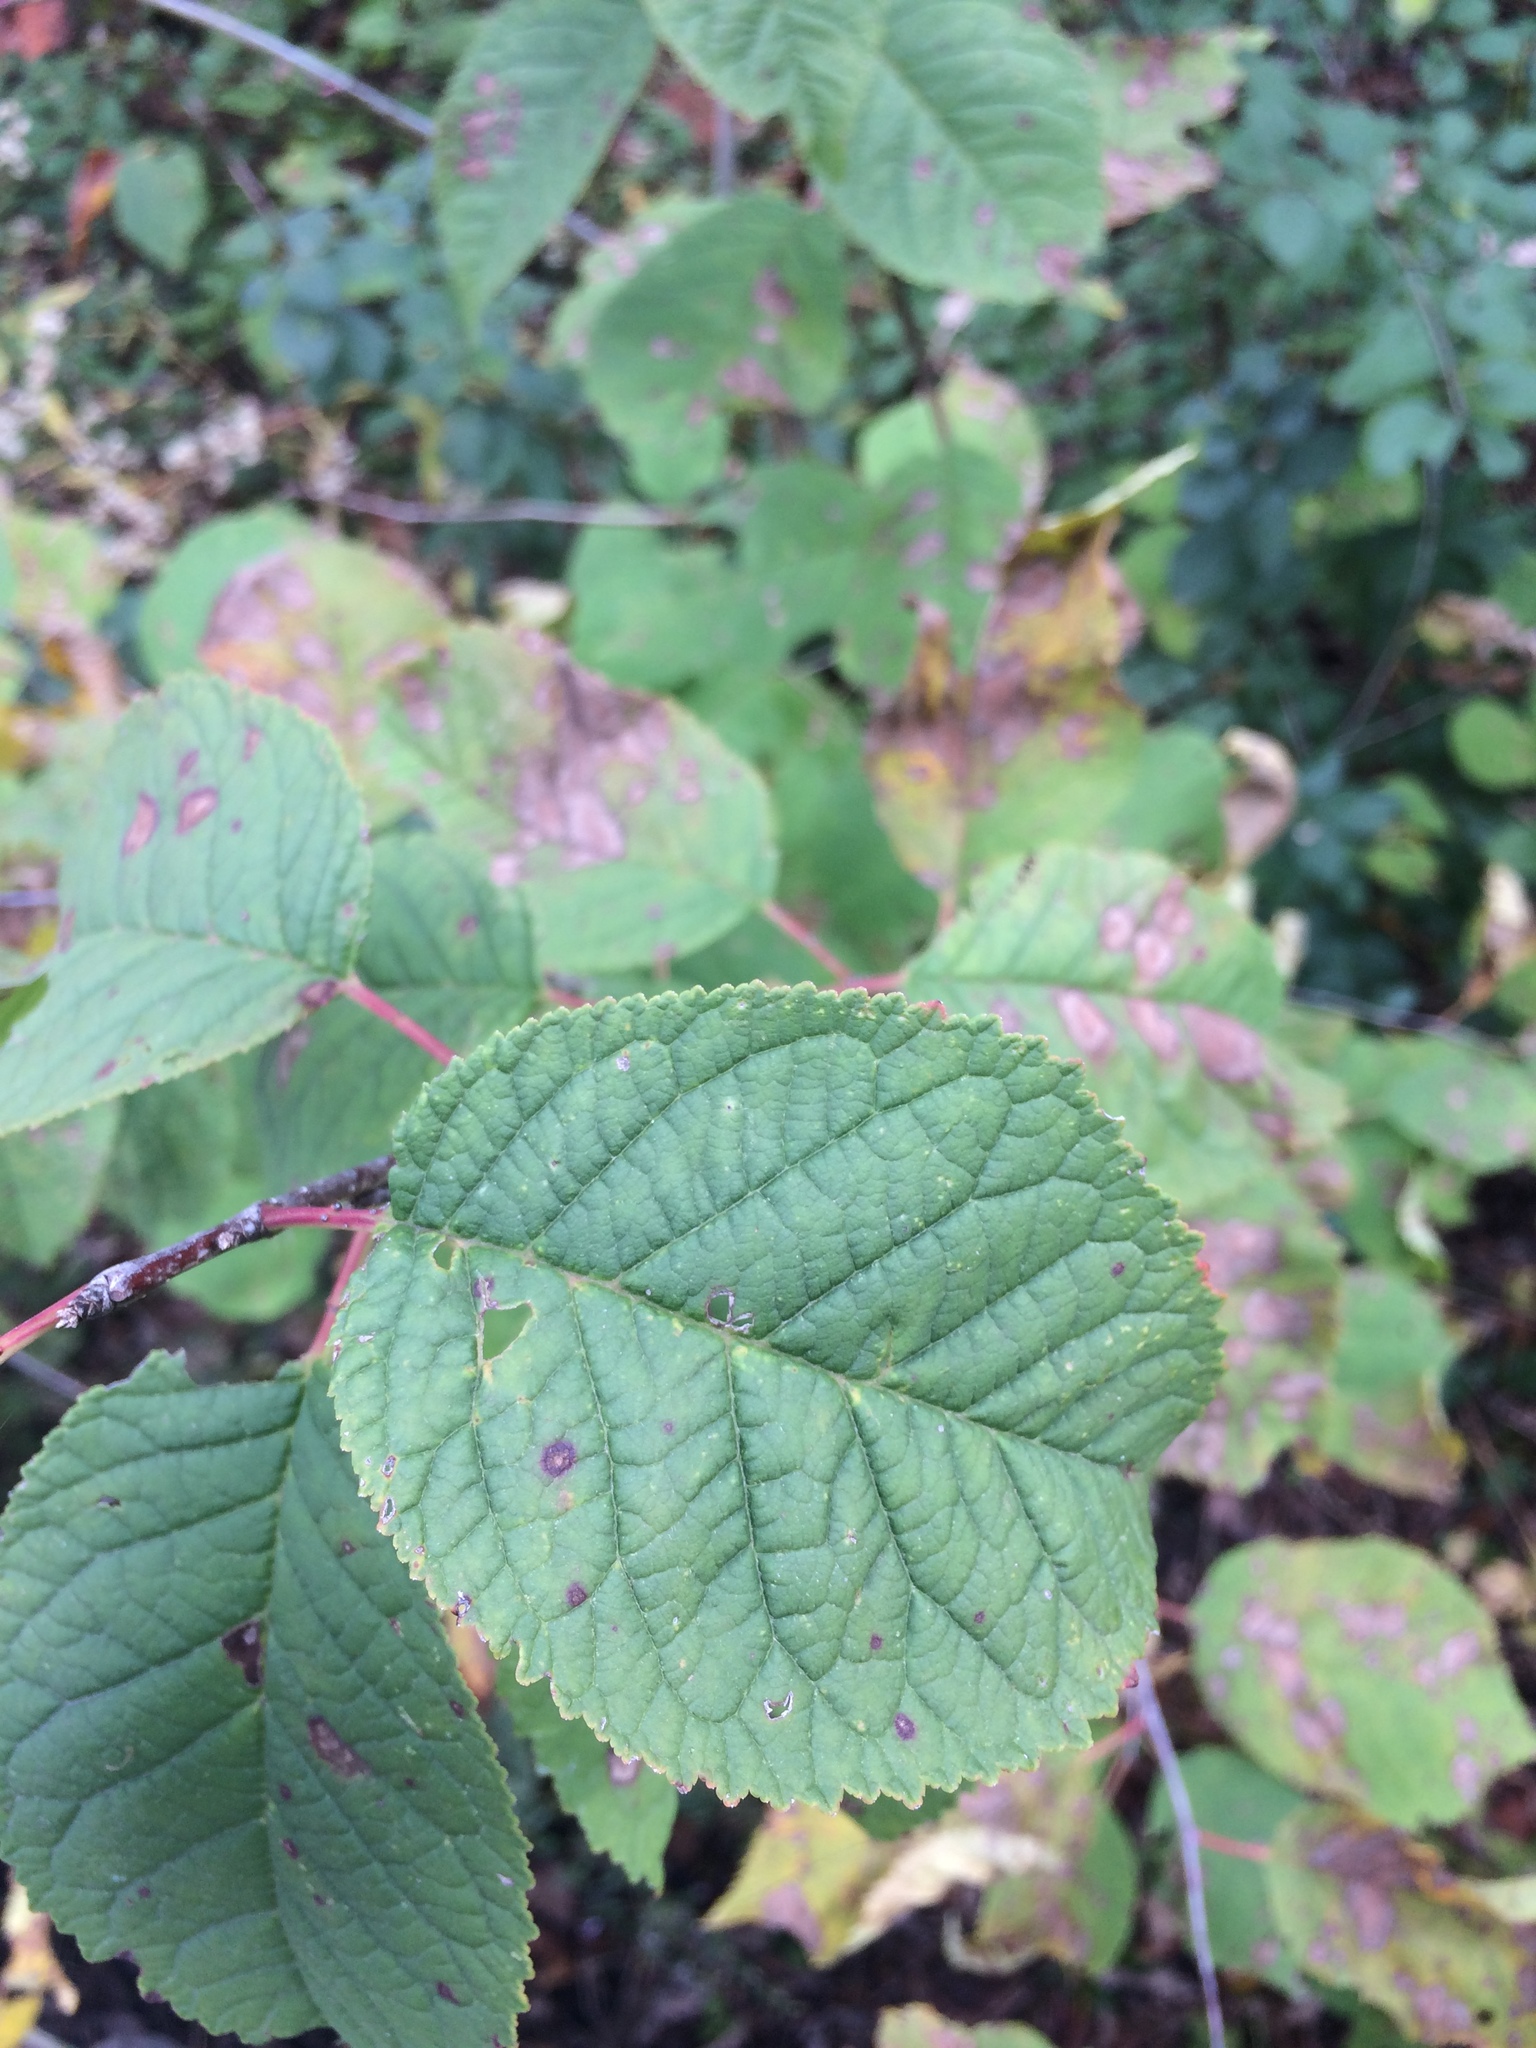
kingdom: Plantae
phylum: Tracheophyta
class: Magnoliopsida
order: Rosales
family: Rosaceae
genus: Prunus
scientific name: Prunus nigra
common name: Black plum
